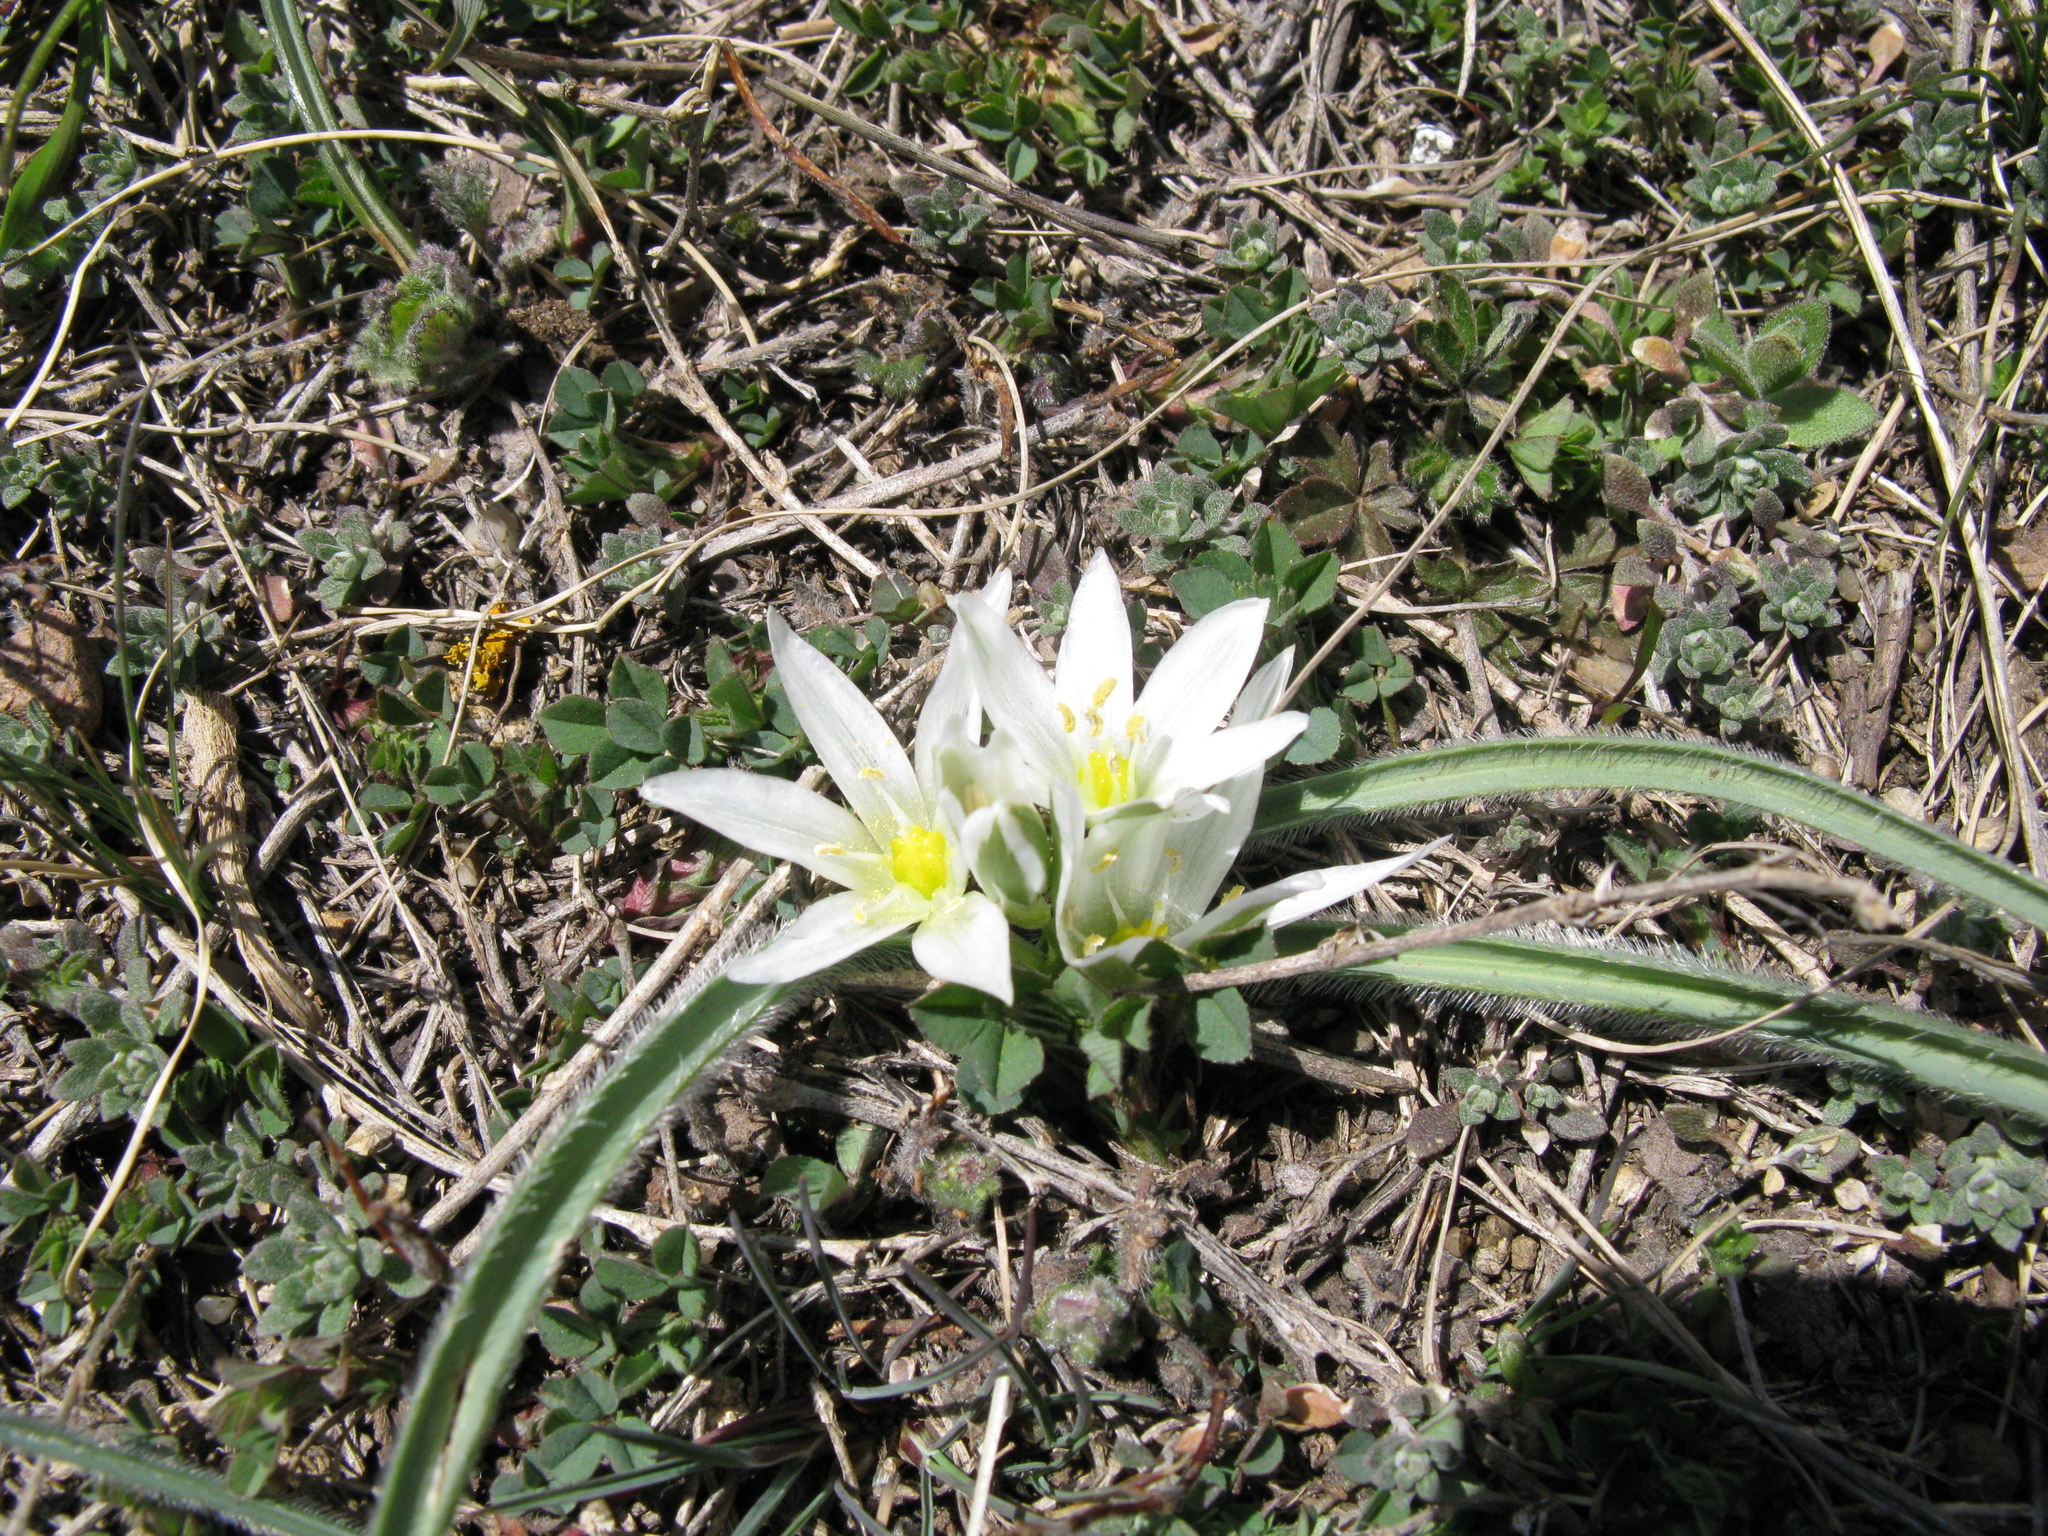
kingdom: Plantae
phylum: Tracheophyta
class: Liliopsida
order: Asparagales
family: Asparagaceae
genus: Ornithogalum
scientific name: Ornithogalum fimbriatum
